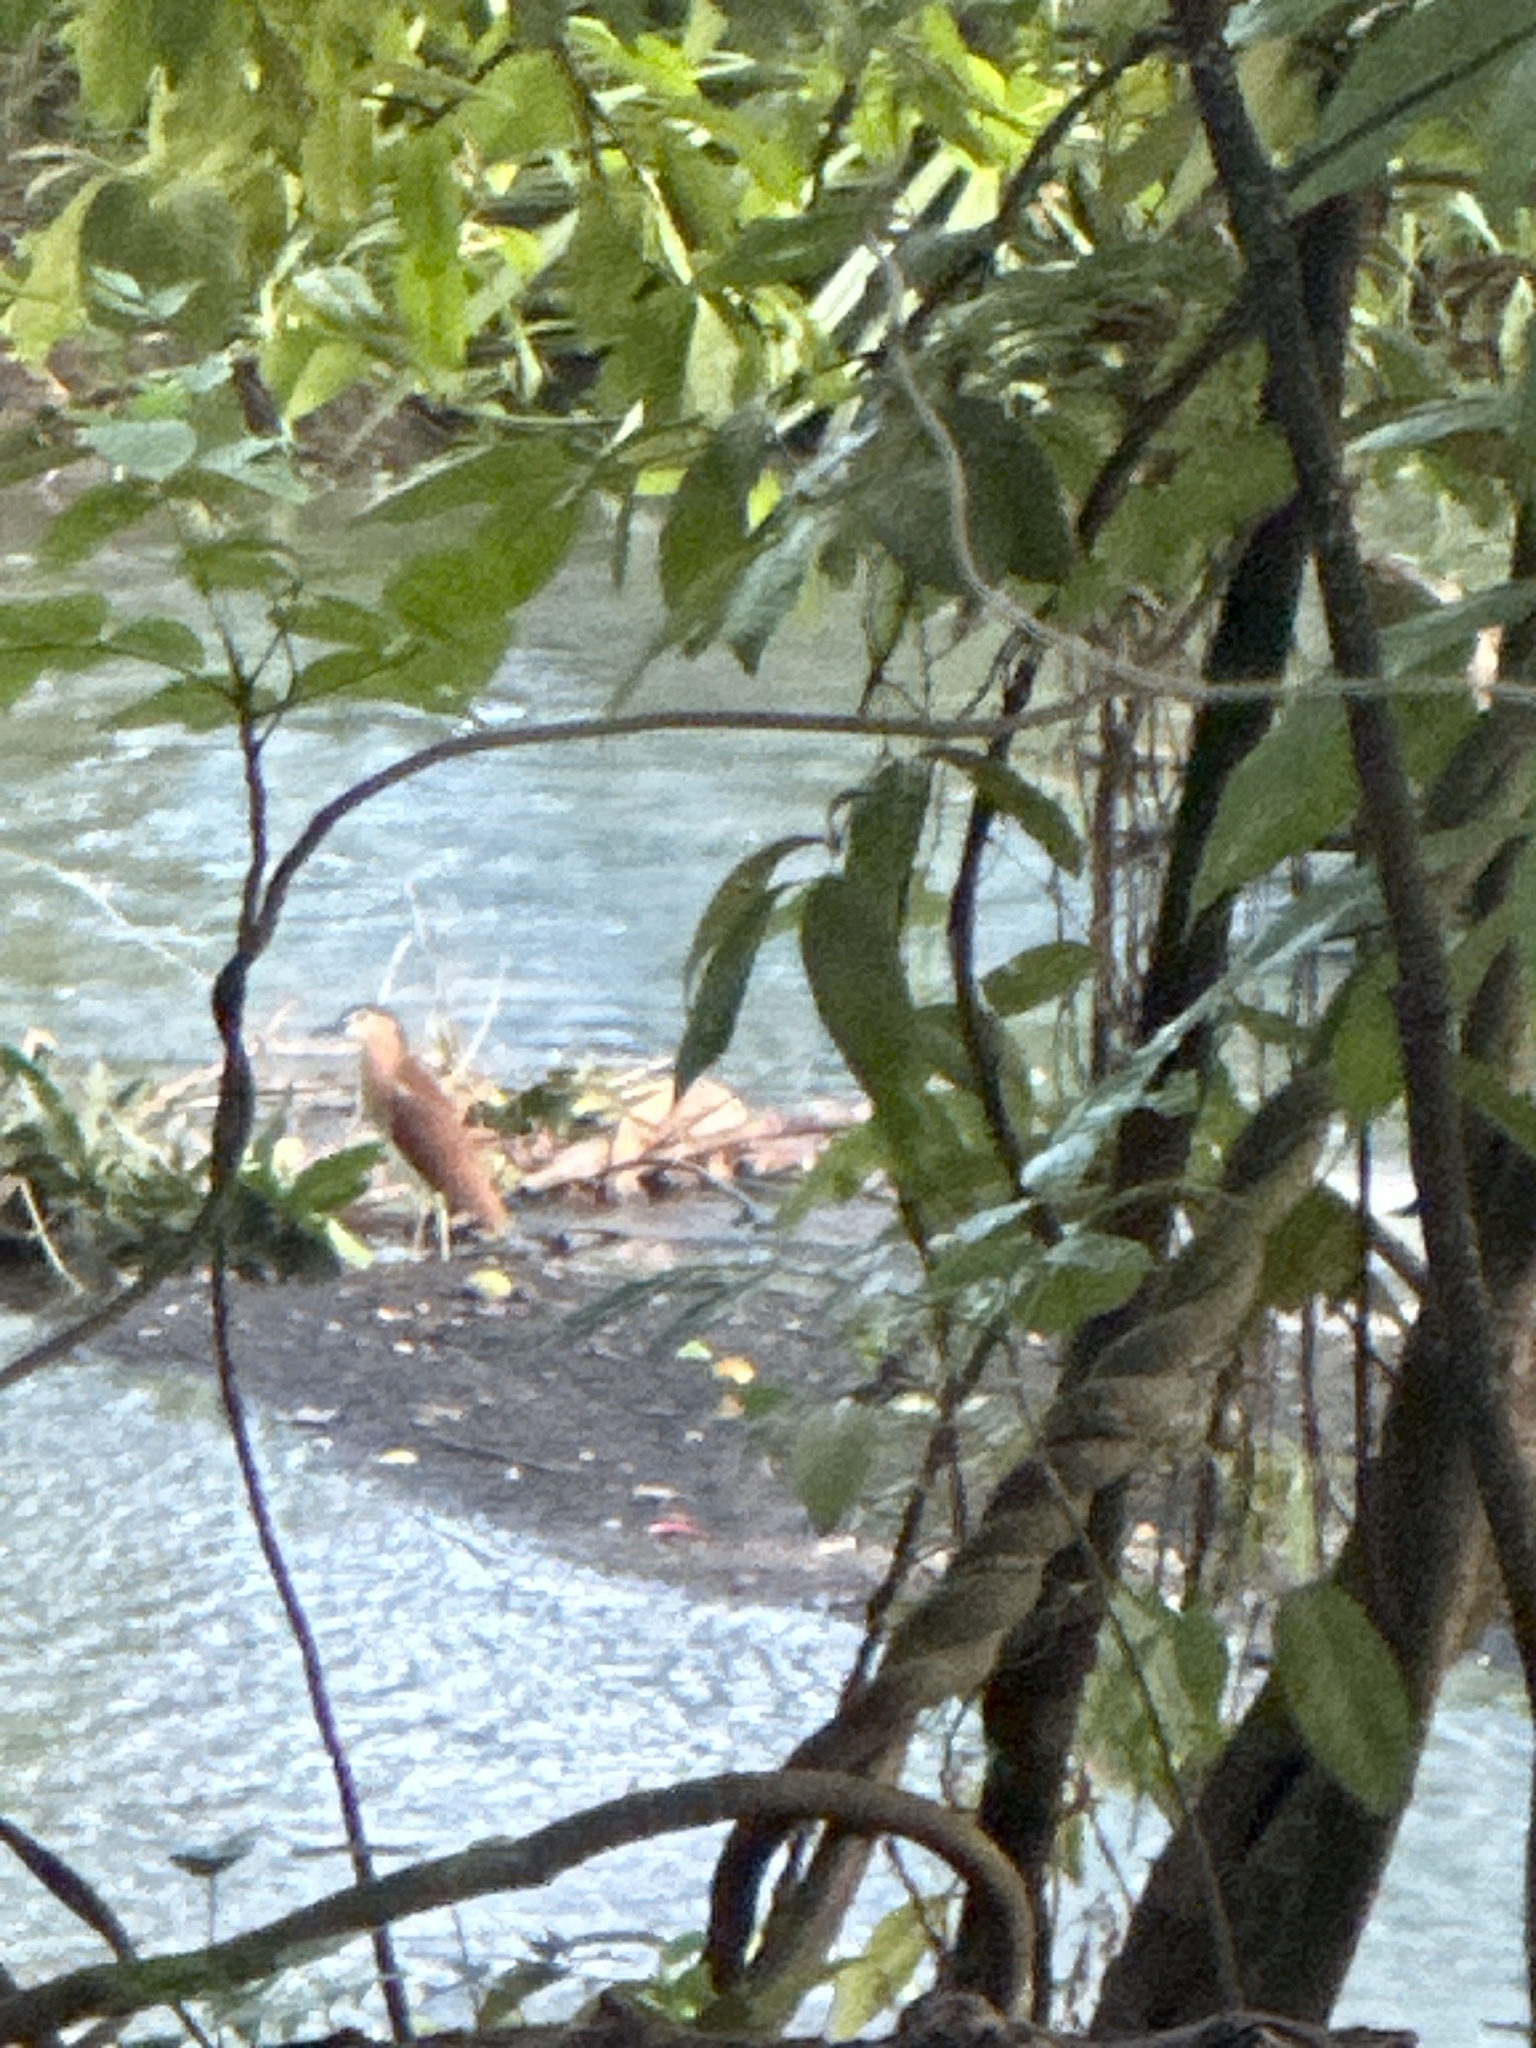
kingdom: Animalia
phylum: Chordata
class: Aves
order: Pelecaniformes
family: Ardeidae
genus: Nycticorax
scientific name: Nycticorax caledonicus
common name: Rufous night-heron
